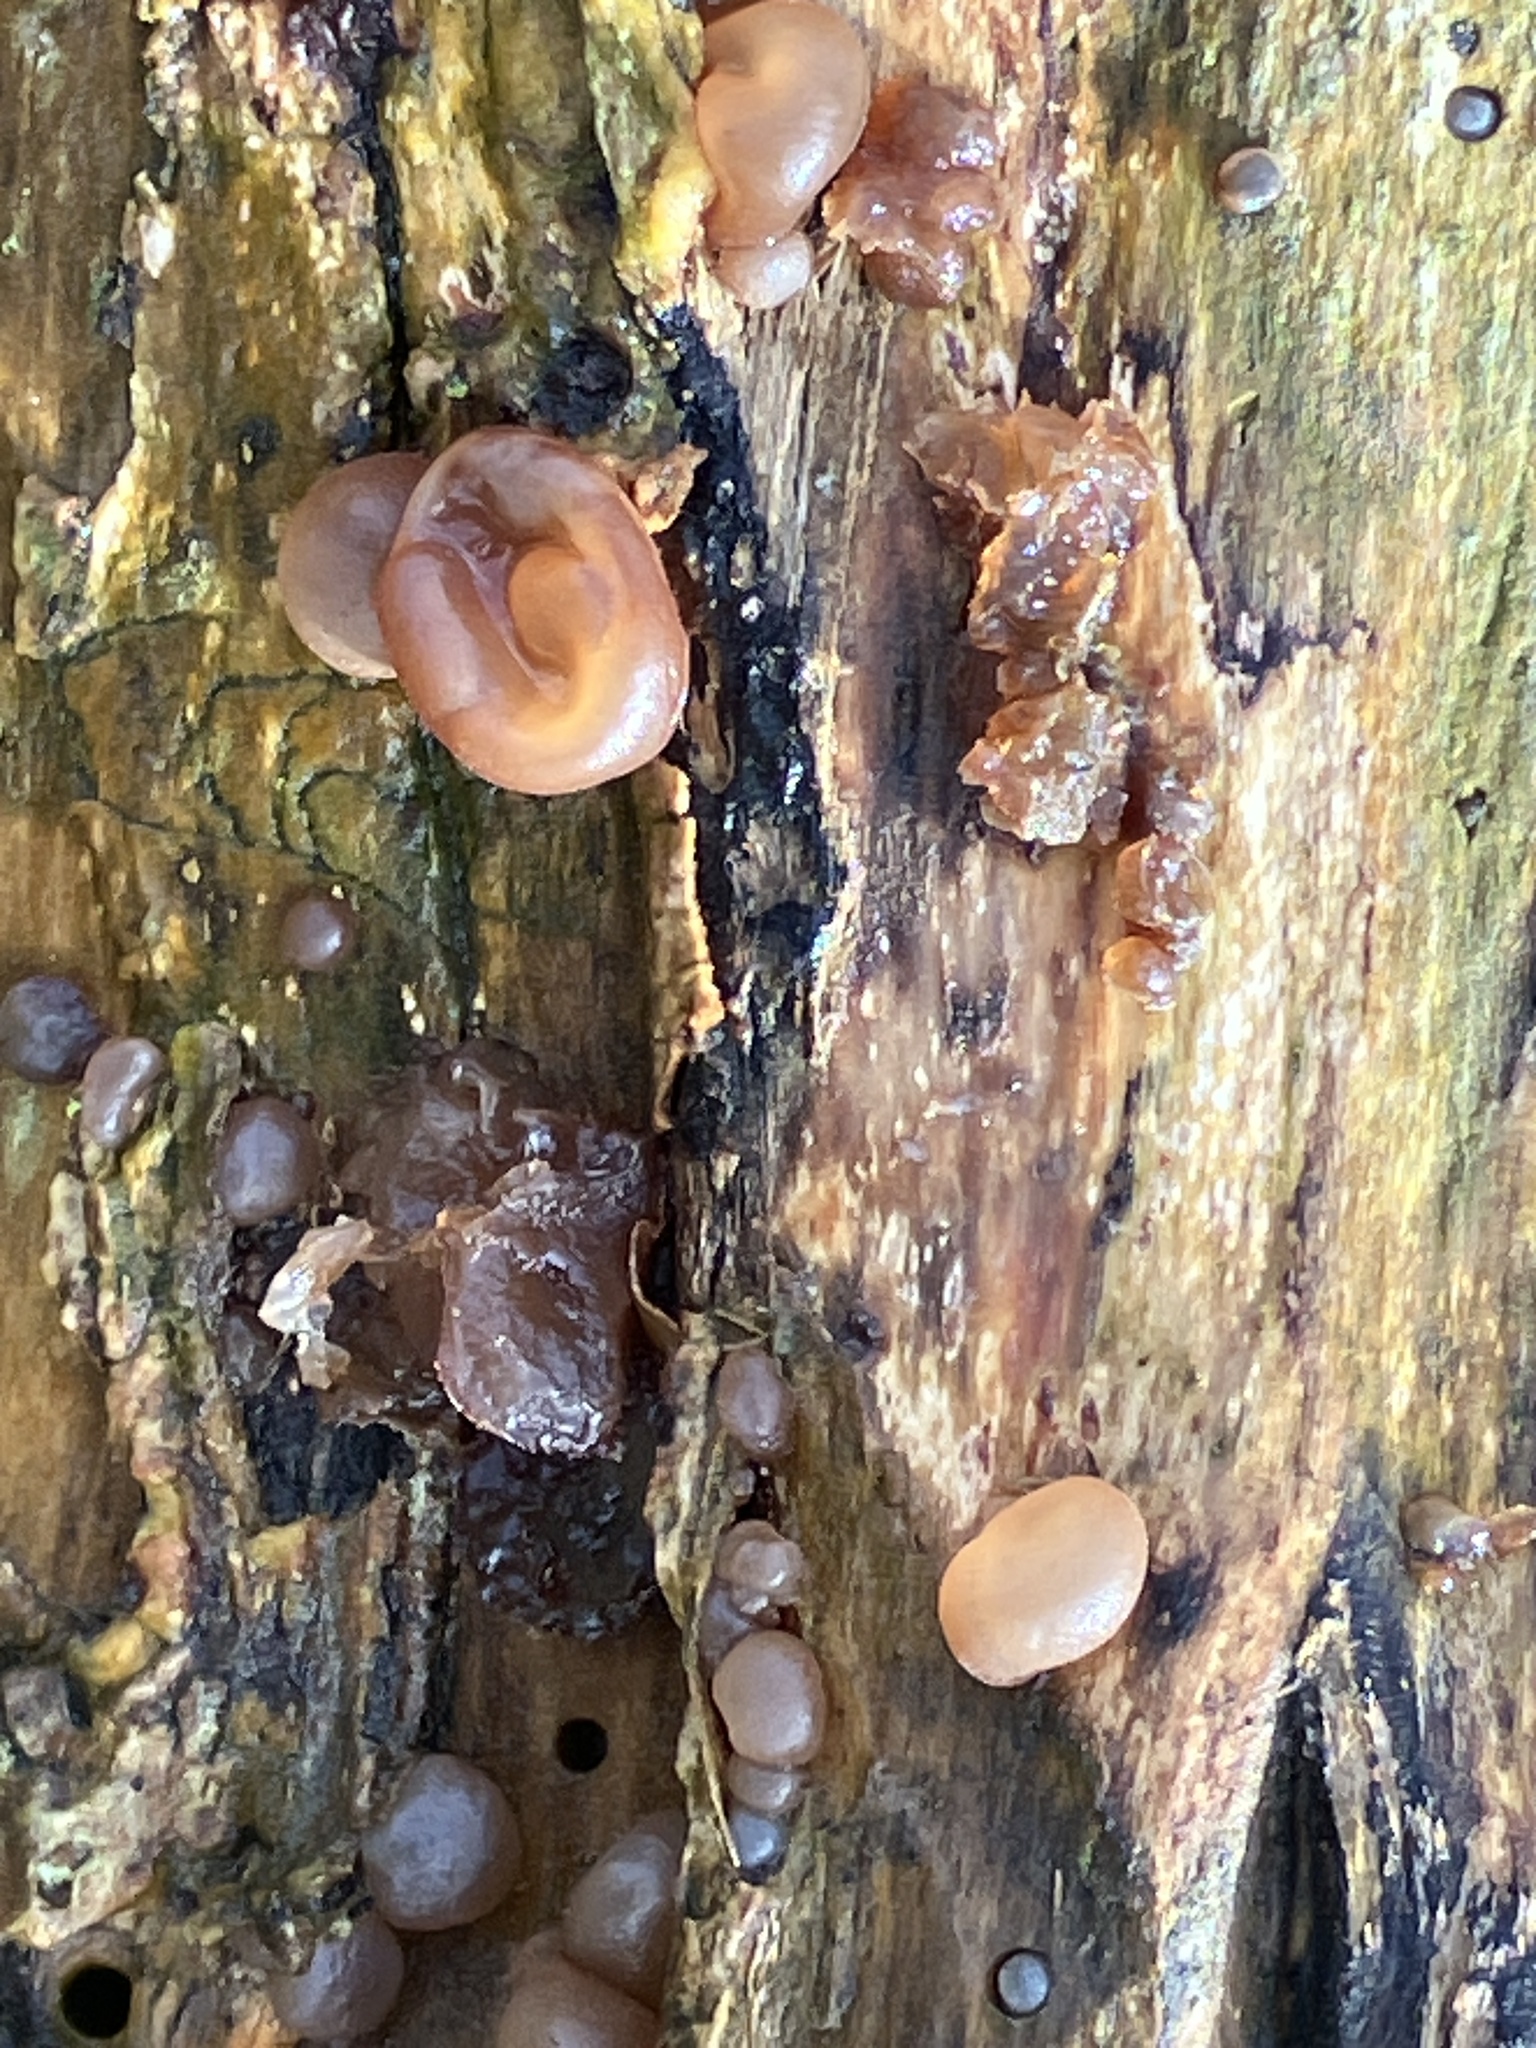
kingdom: Fungi
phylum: Basidiomycota
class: Agaricomycetes
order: Auriculariales
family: Auriculariaceae
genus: Auricularia
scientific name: Auricularia auricula-judae
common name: Jelly ear
